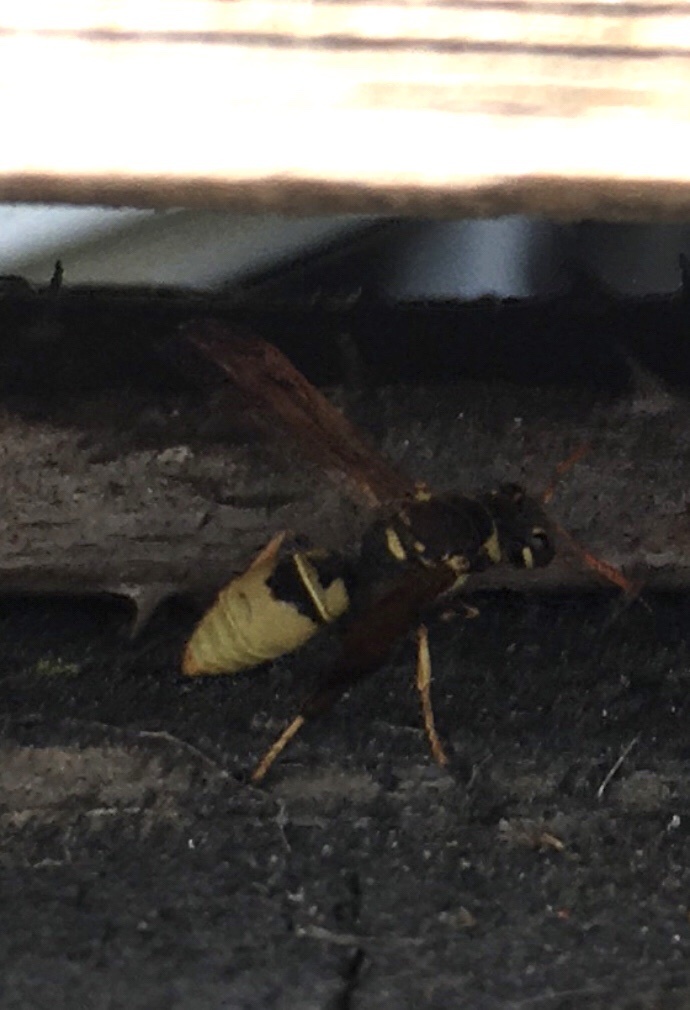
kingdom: Animalia
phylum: Arthropoda
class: Insecta
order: Hymenoptera
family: Vespidae
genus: Ancistrocerus
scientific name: Ancistrocerus
